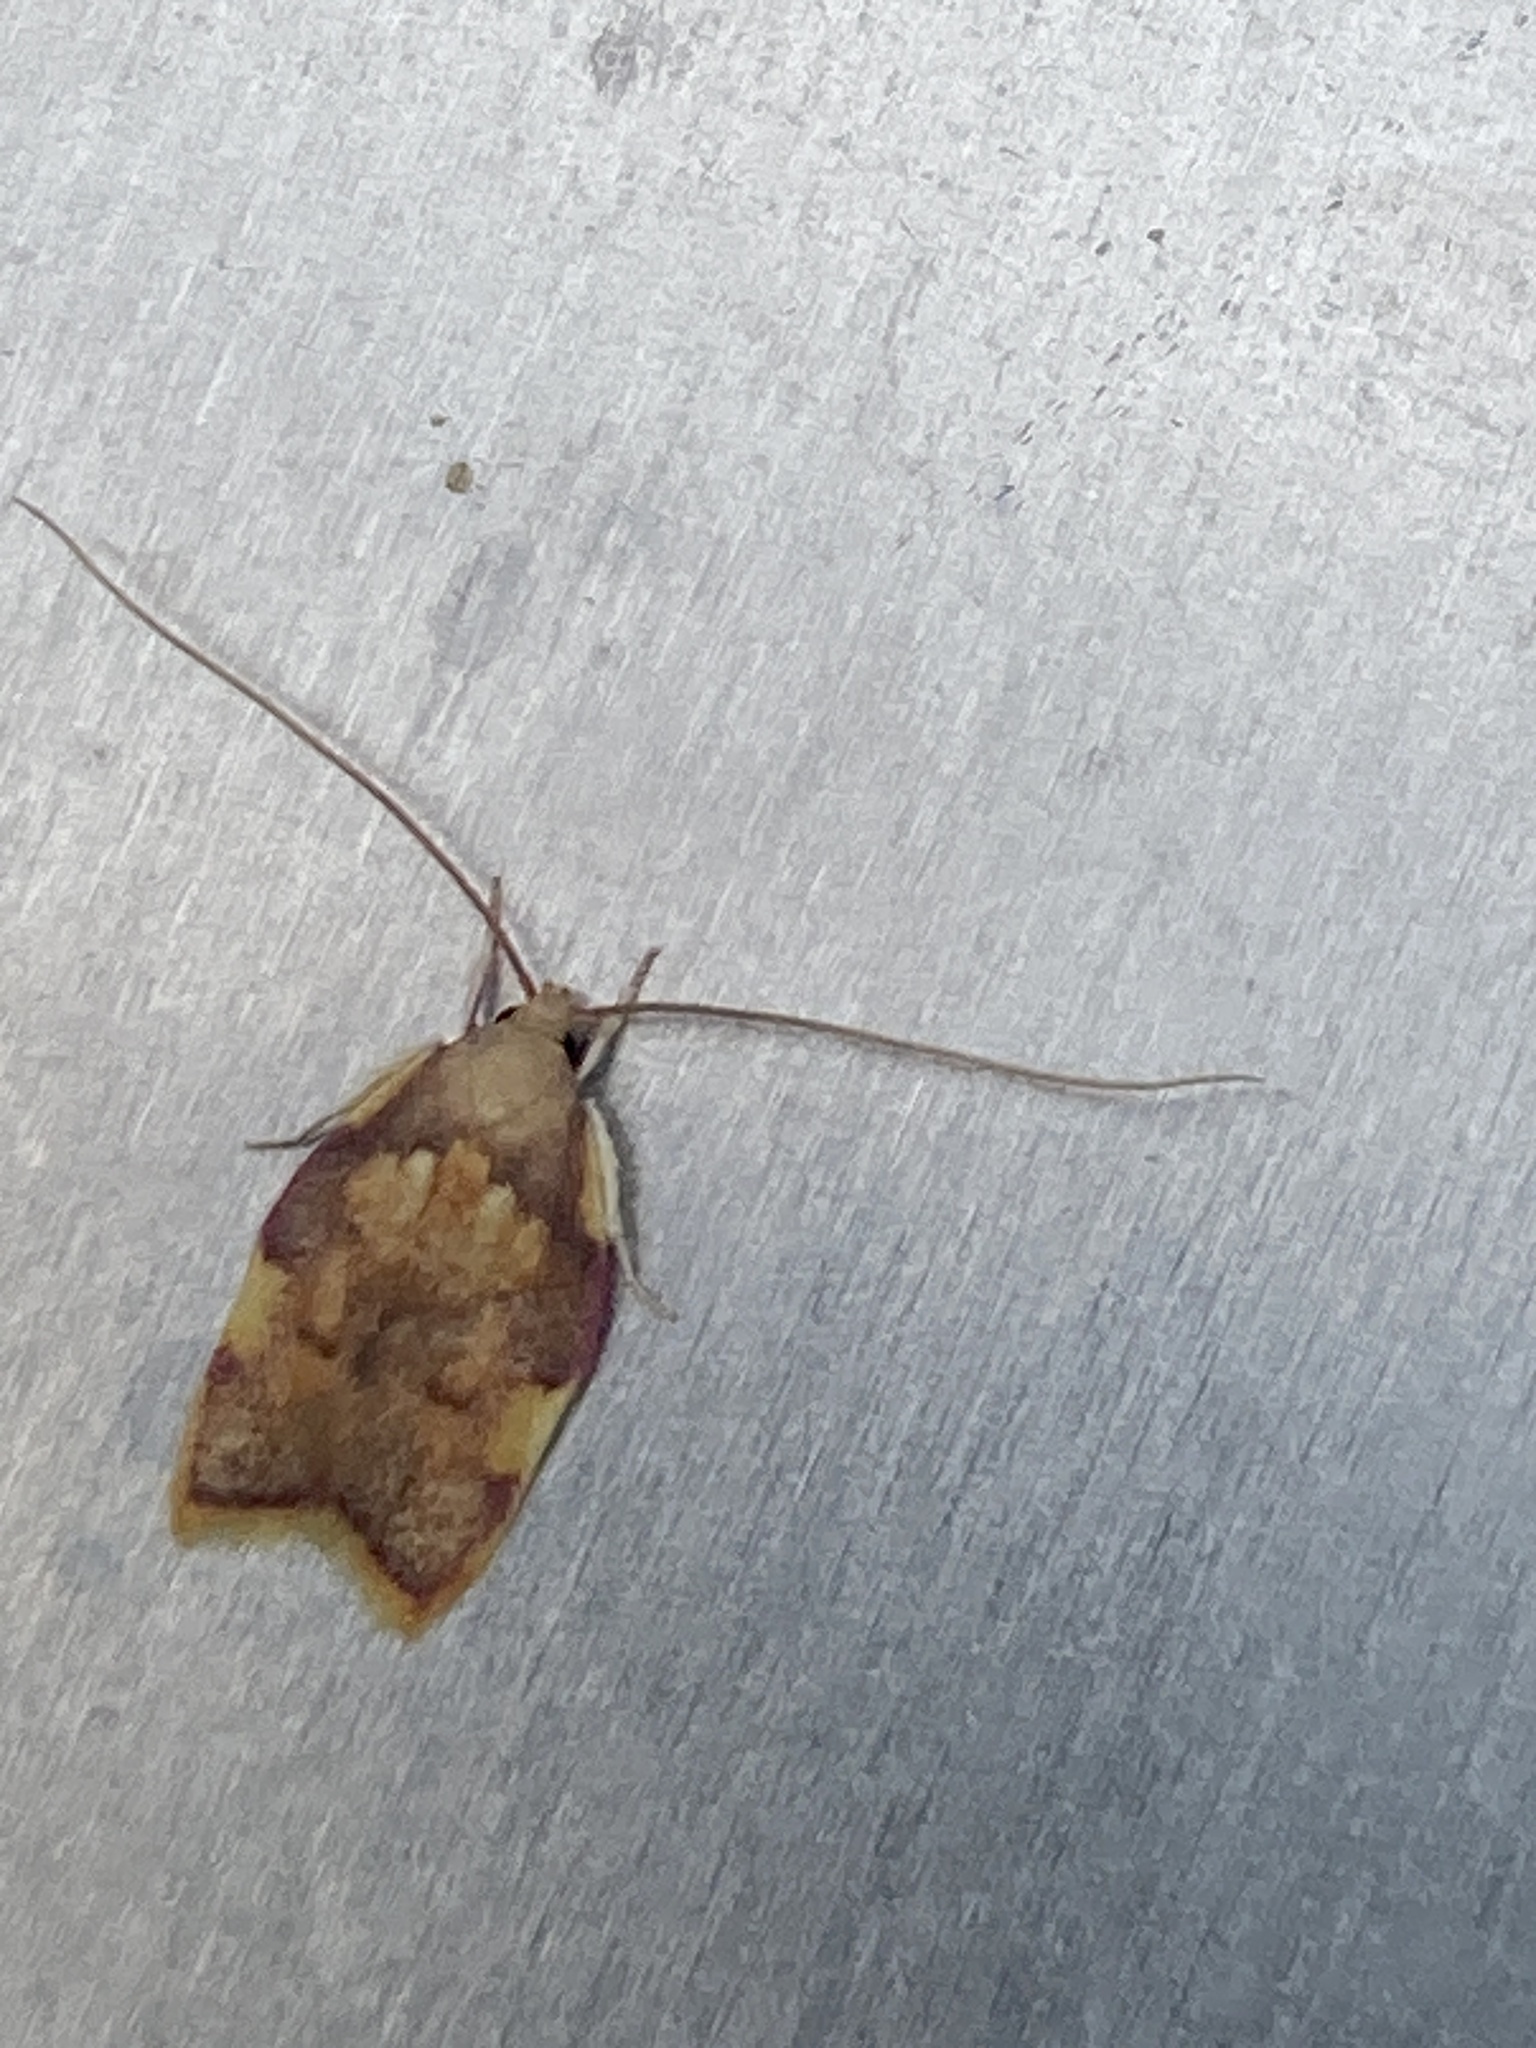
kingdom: Animalia
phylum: Arthropoda
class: Insecta
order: Lepidoptera
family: Peleopodidae
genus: Carcina
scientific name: Carcina quercana
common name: Moth
